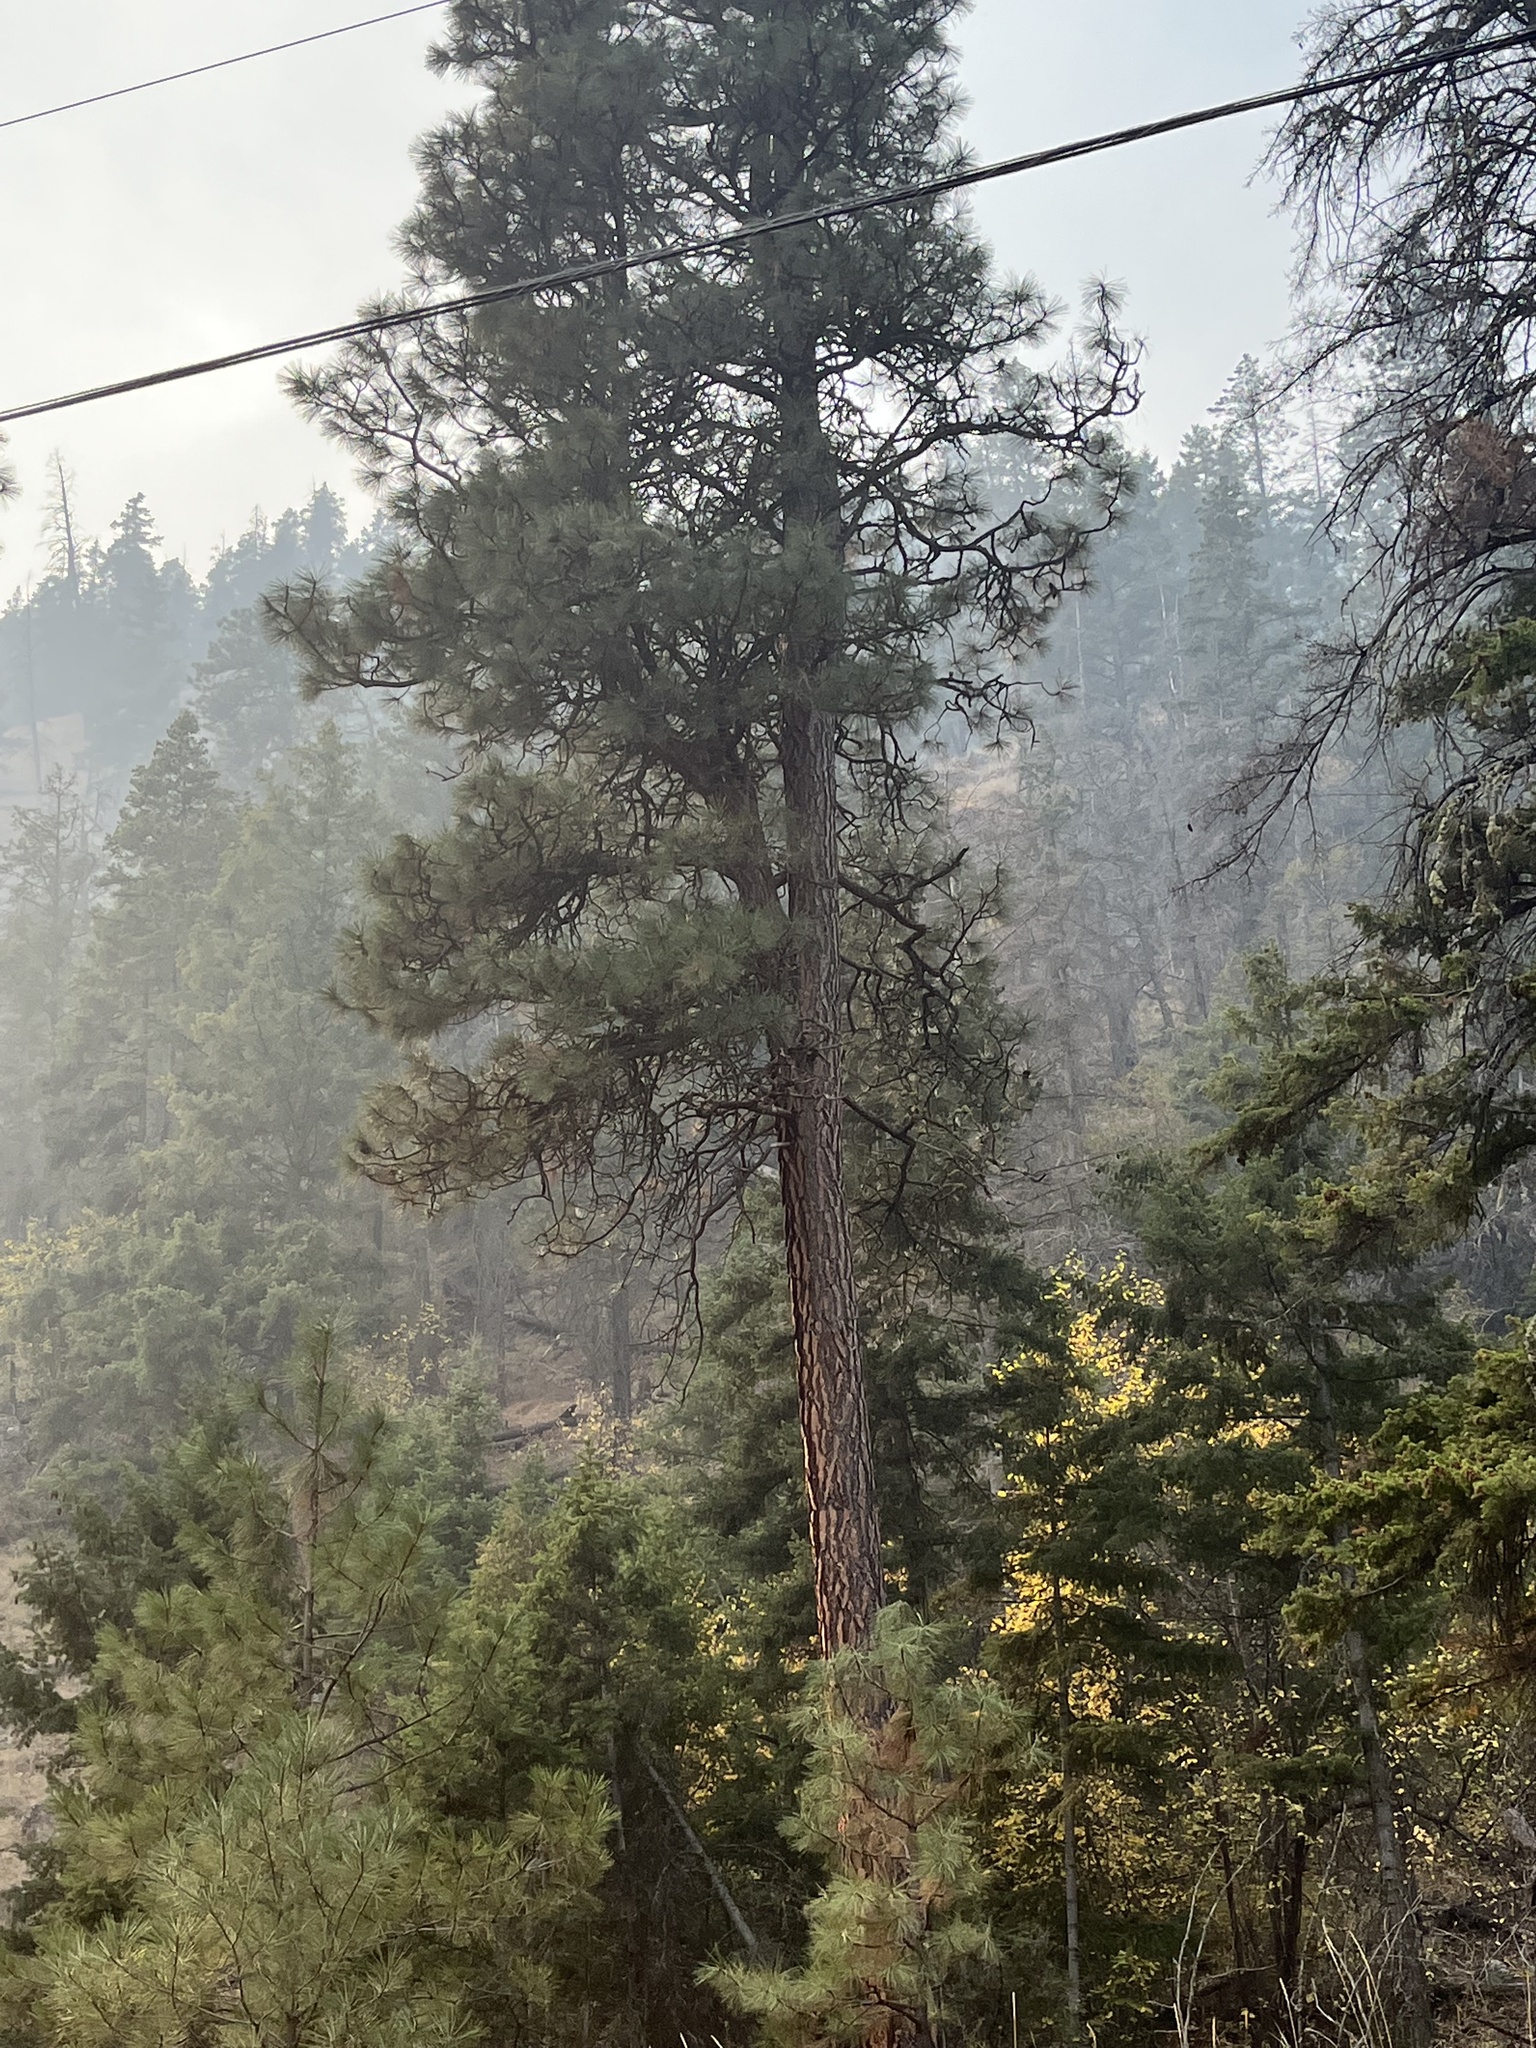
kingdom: Plantae
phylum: Tracheophyta
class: Pinopsida
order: Pinales
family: Pinaceae
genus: Pinus
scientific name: Pinus ponderosa
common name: Western yellow-pine
